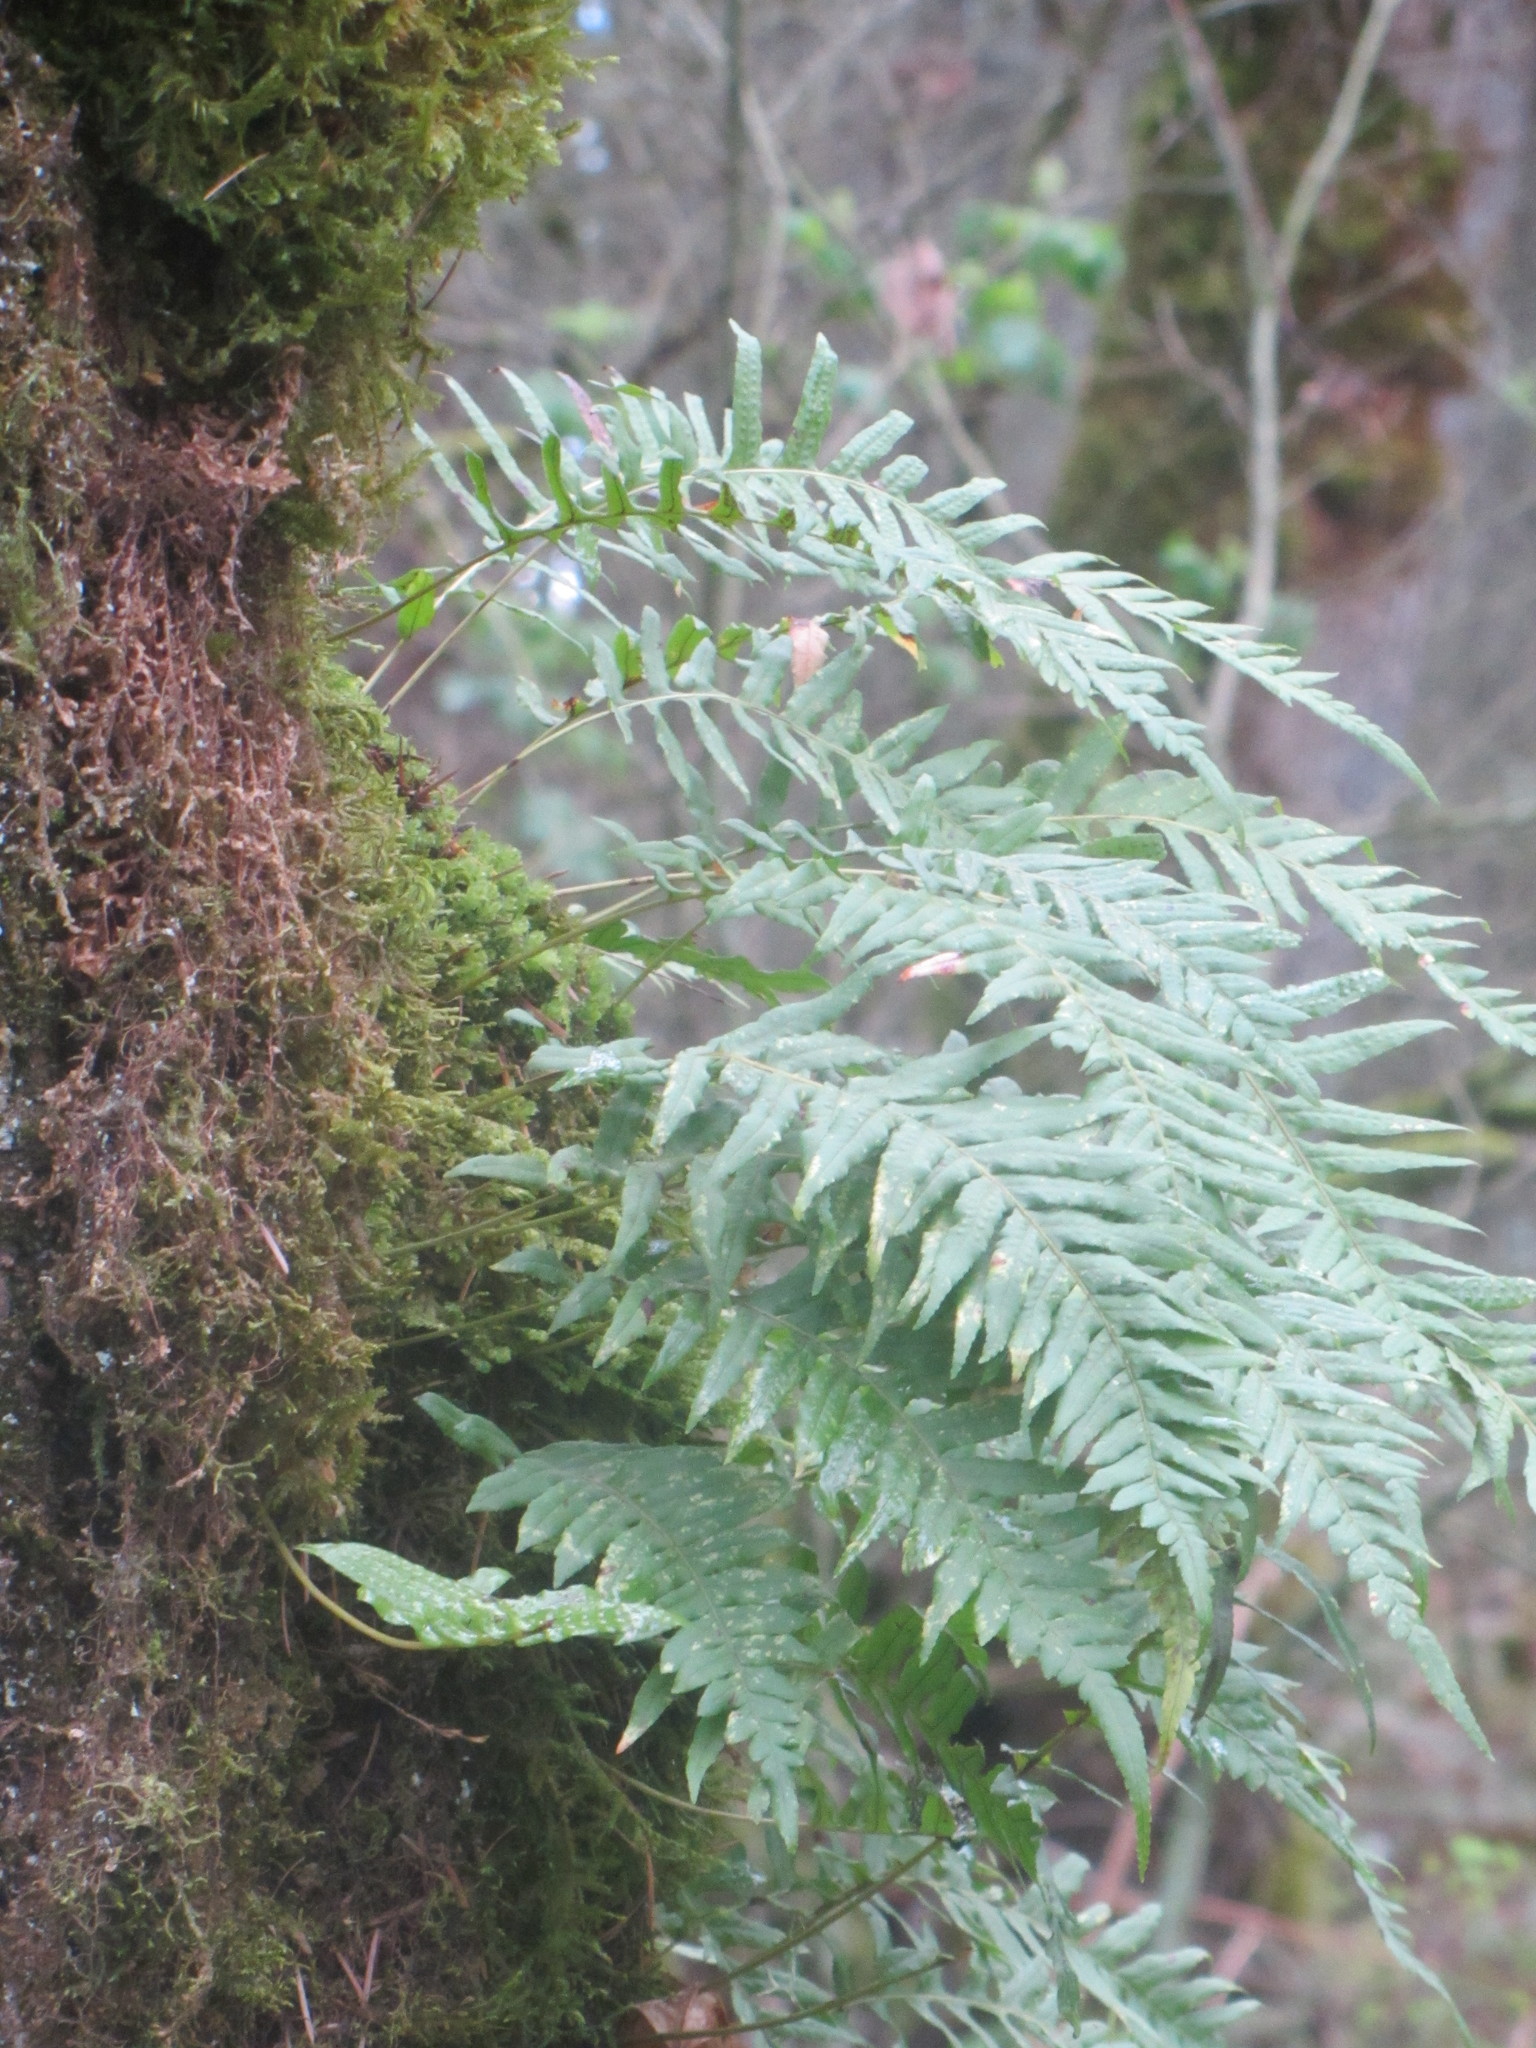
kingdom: Plantae
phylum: Tracheophyta
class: Polypodiopsida
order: Polypodiales
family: Polypodiaceae
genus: Polypodium
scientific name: Polypodium glycyrrhiza
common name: Licorice fern
